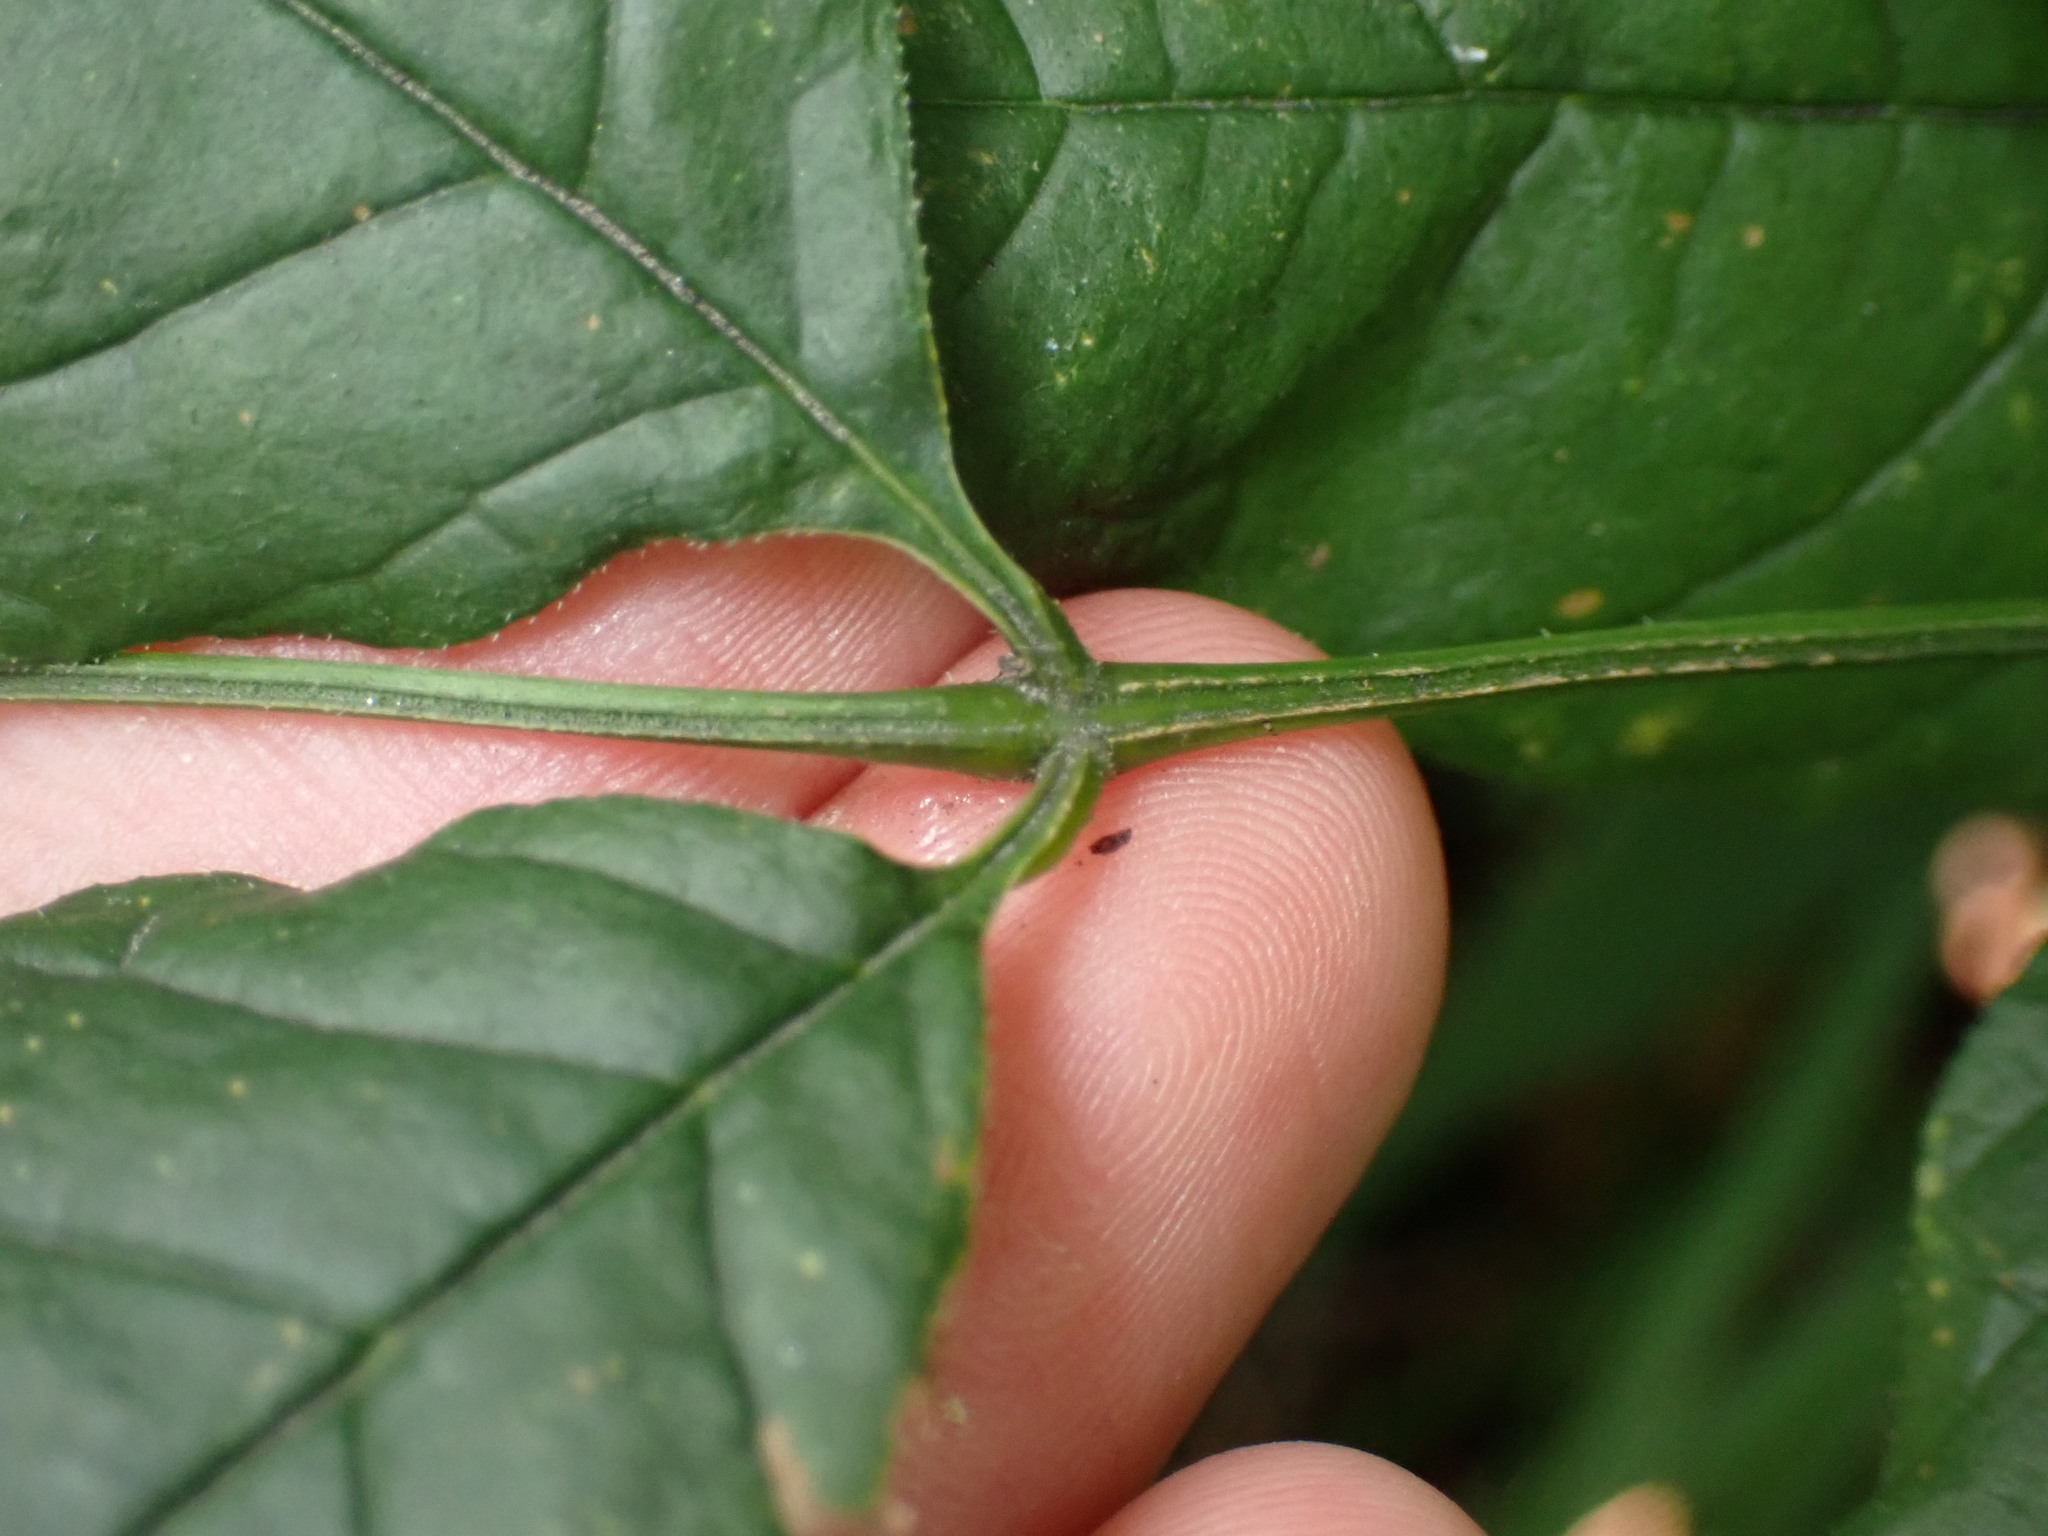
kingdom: Plantae
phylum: Tracheophyta
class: Magnoliopsida
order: Lamiales
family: Oleaceae
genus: Fraxinus
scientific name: Fraxinus americana
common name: White ash
